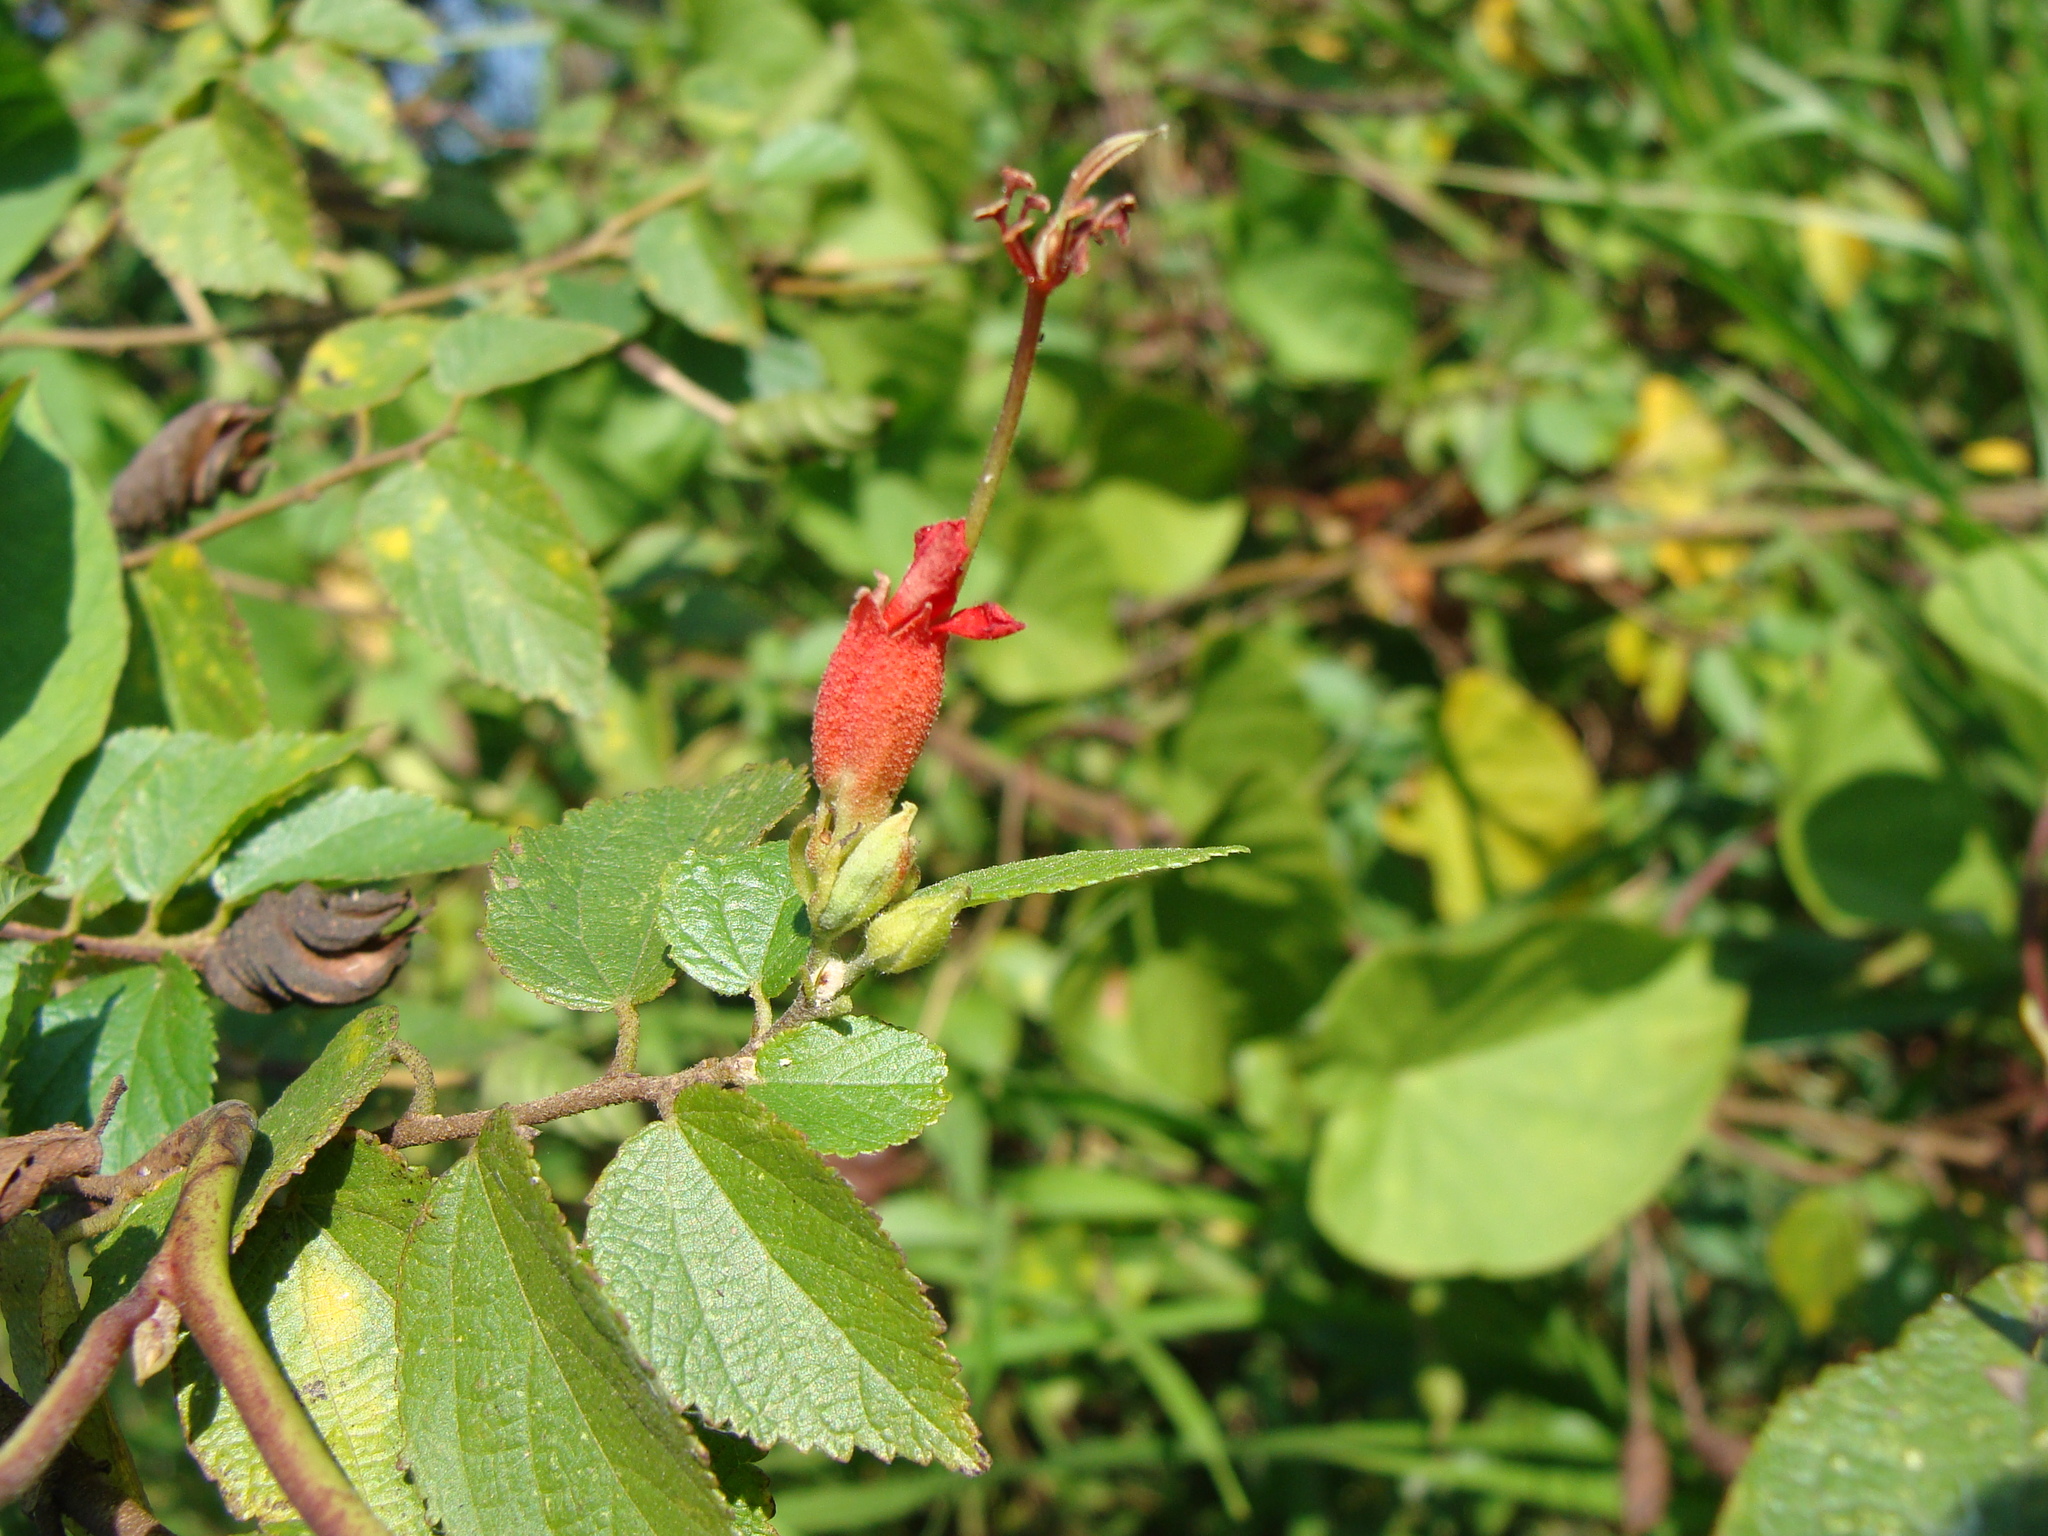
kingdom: Plantae
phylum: Tracheophyta
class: Magnoliopsida
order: Malvales
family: Malvaceae
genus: Helicteres
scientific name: Helicteres guazumifolia
